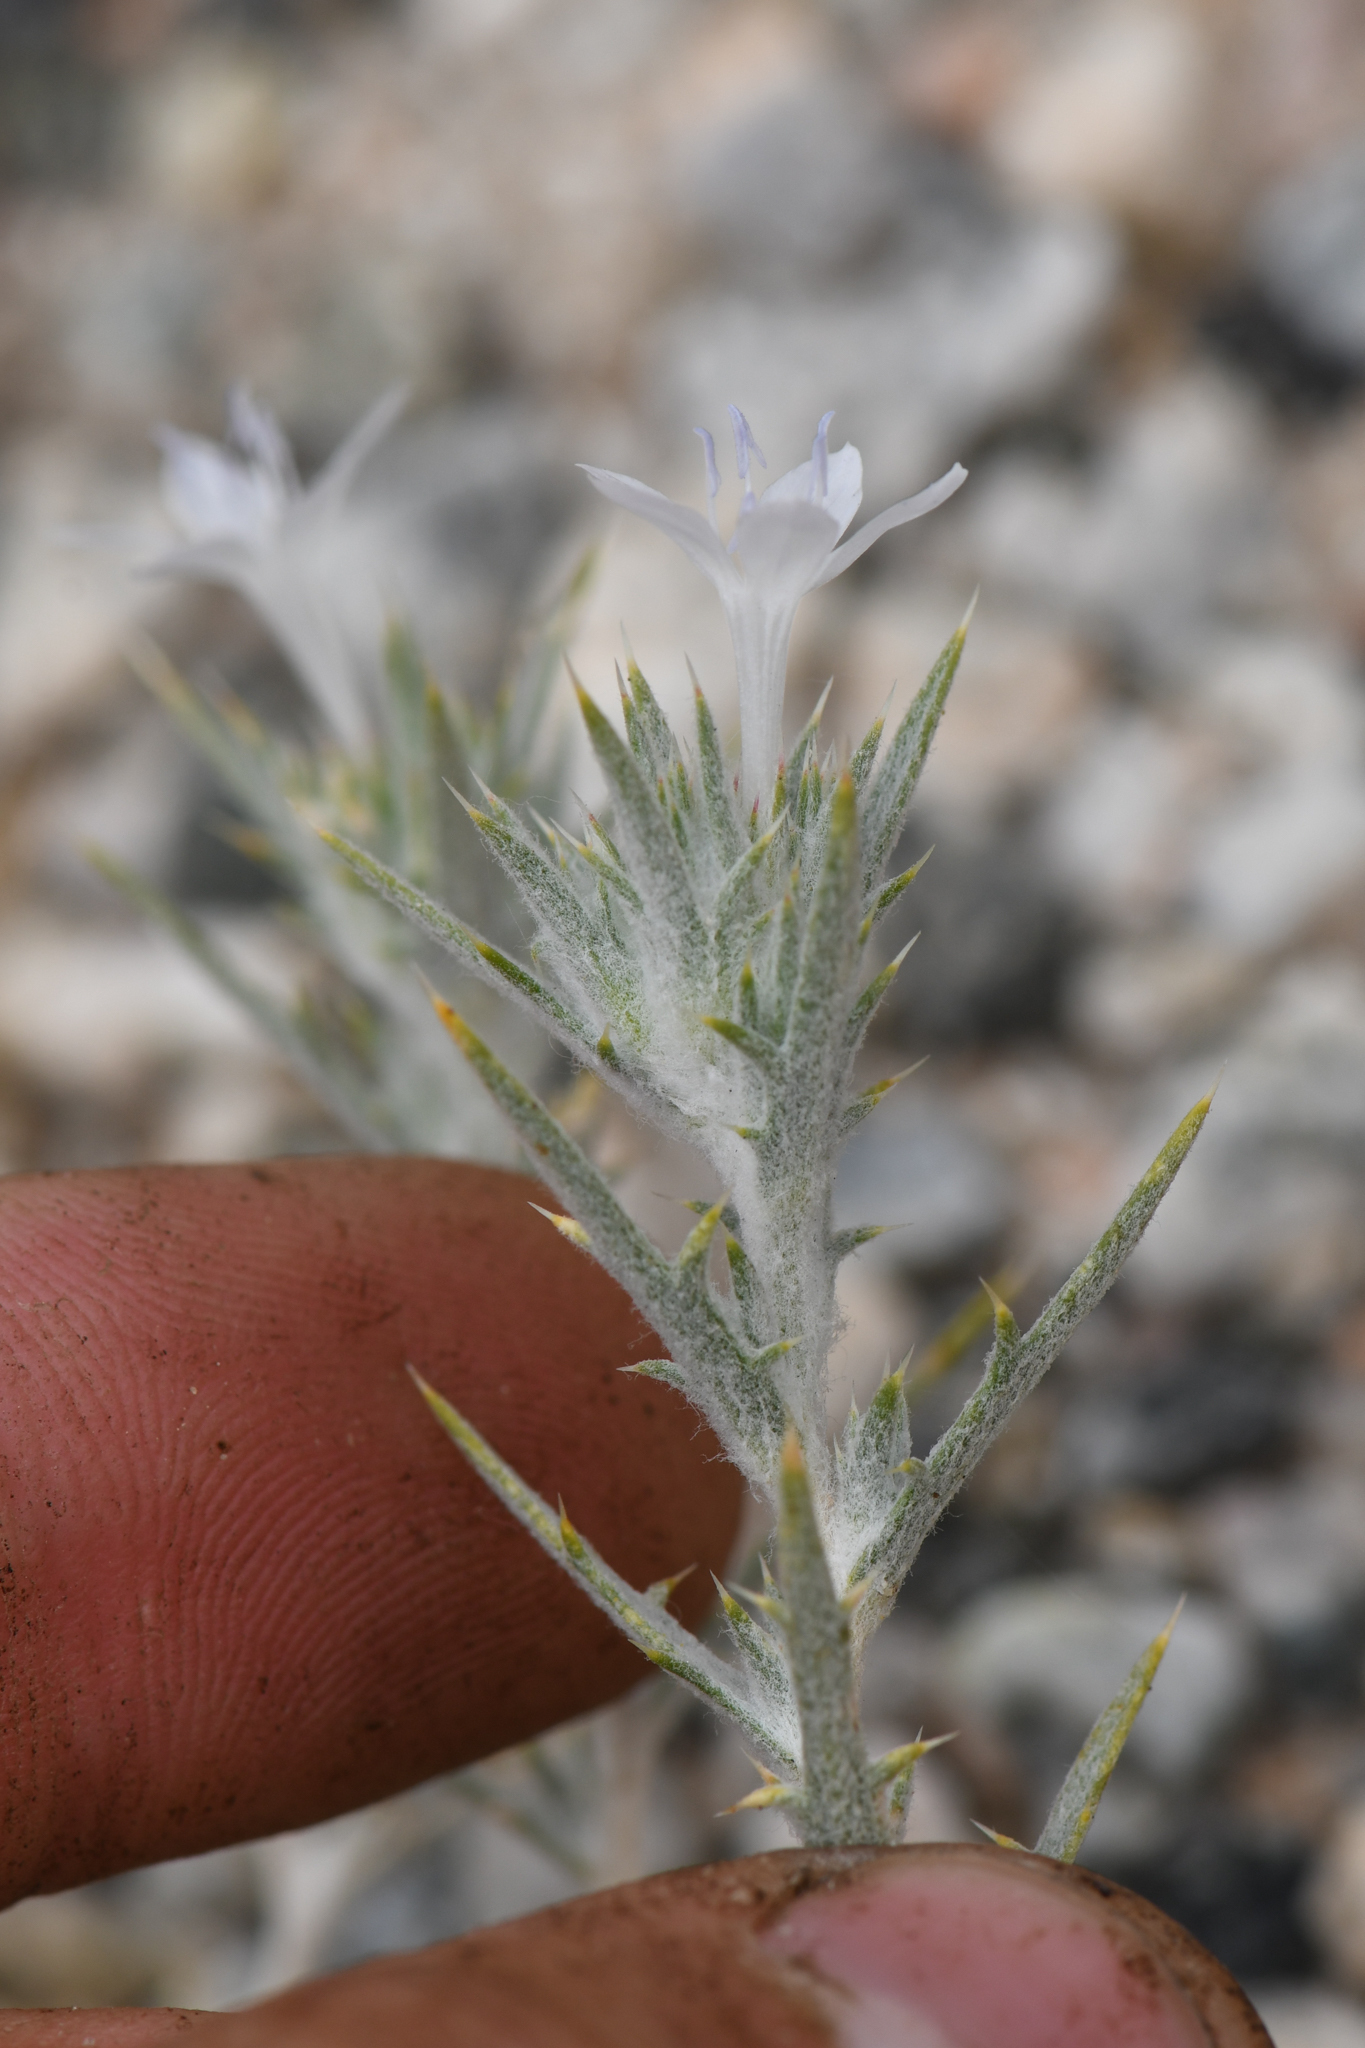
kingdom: Plantae
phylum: Tracheophyta
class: Magnoliopsida
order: Ericales
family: Polemoniaceae
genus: Eriastrum
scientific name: Eriastrum densifolium
